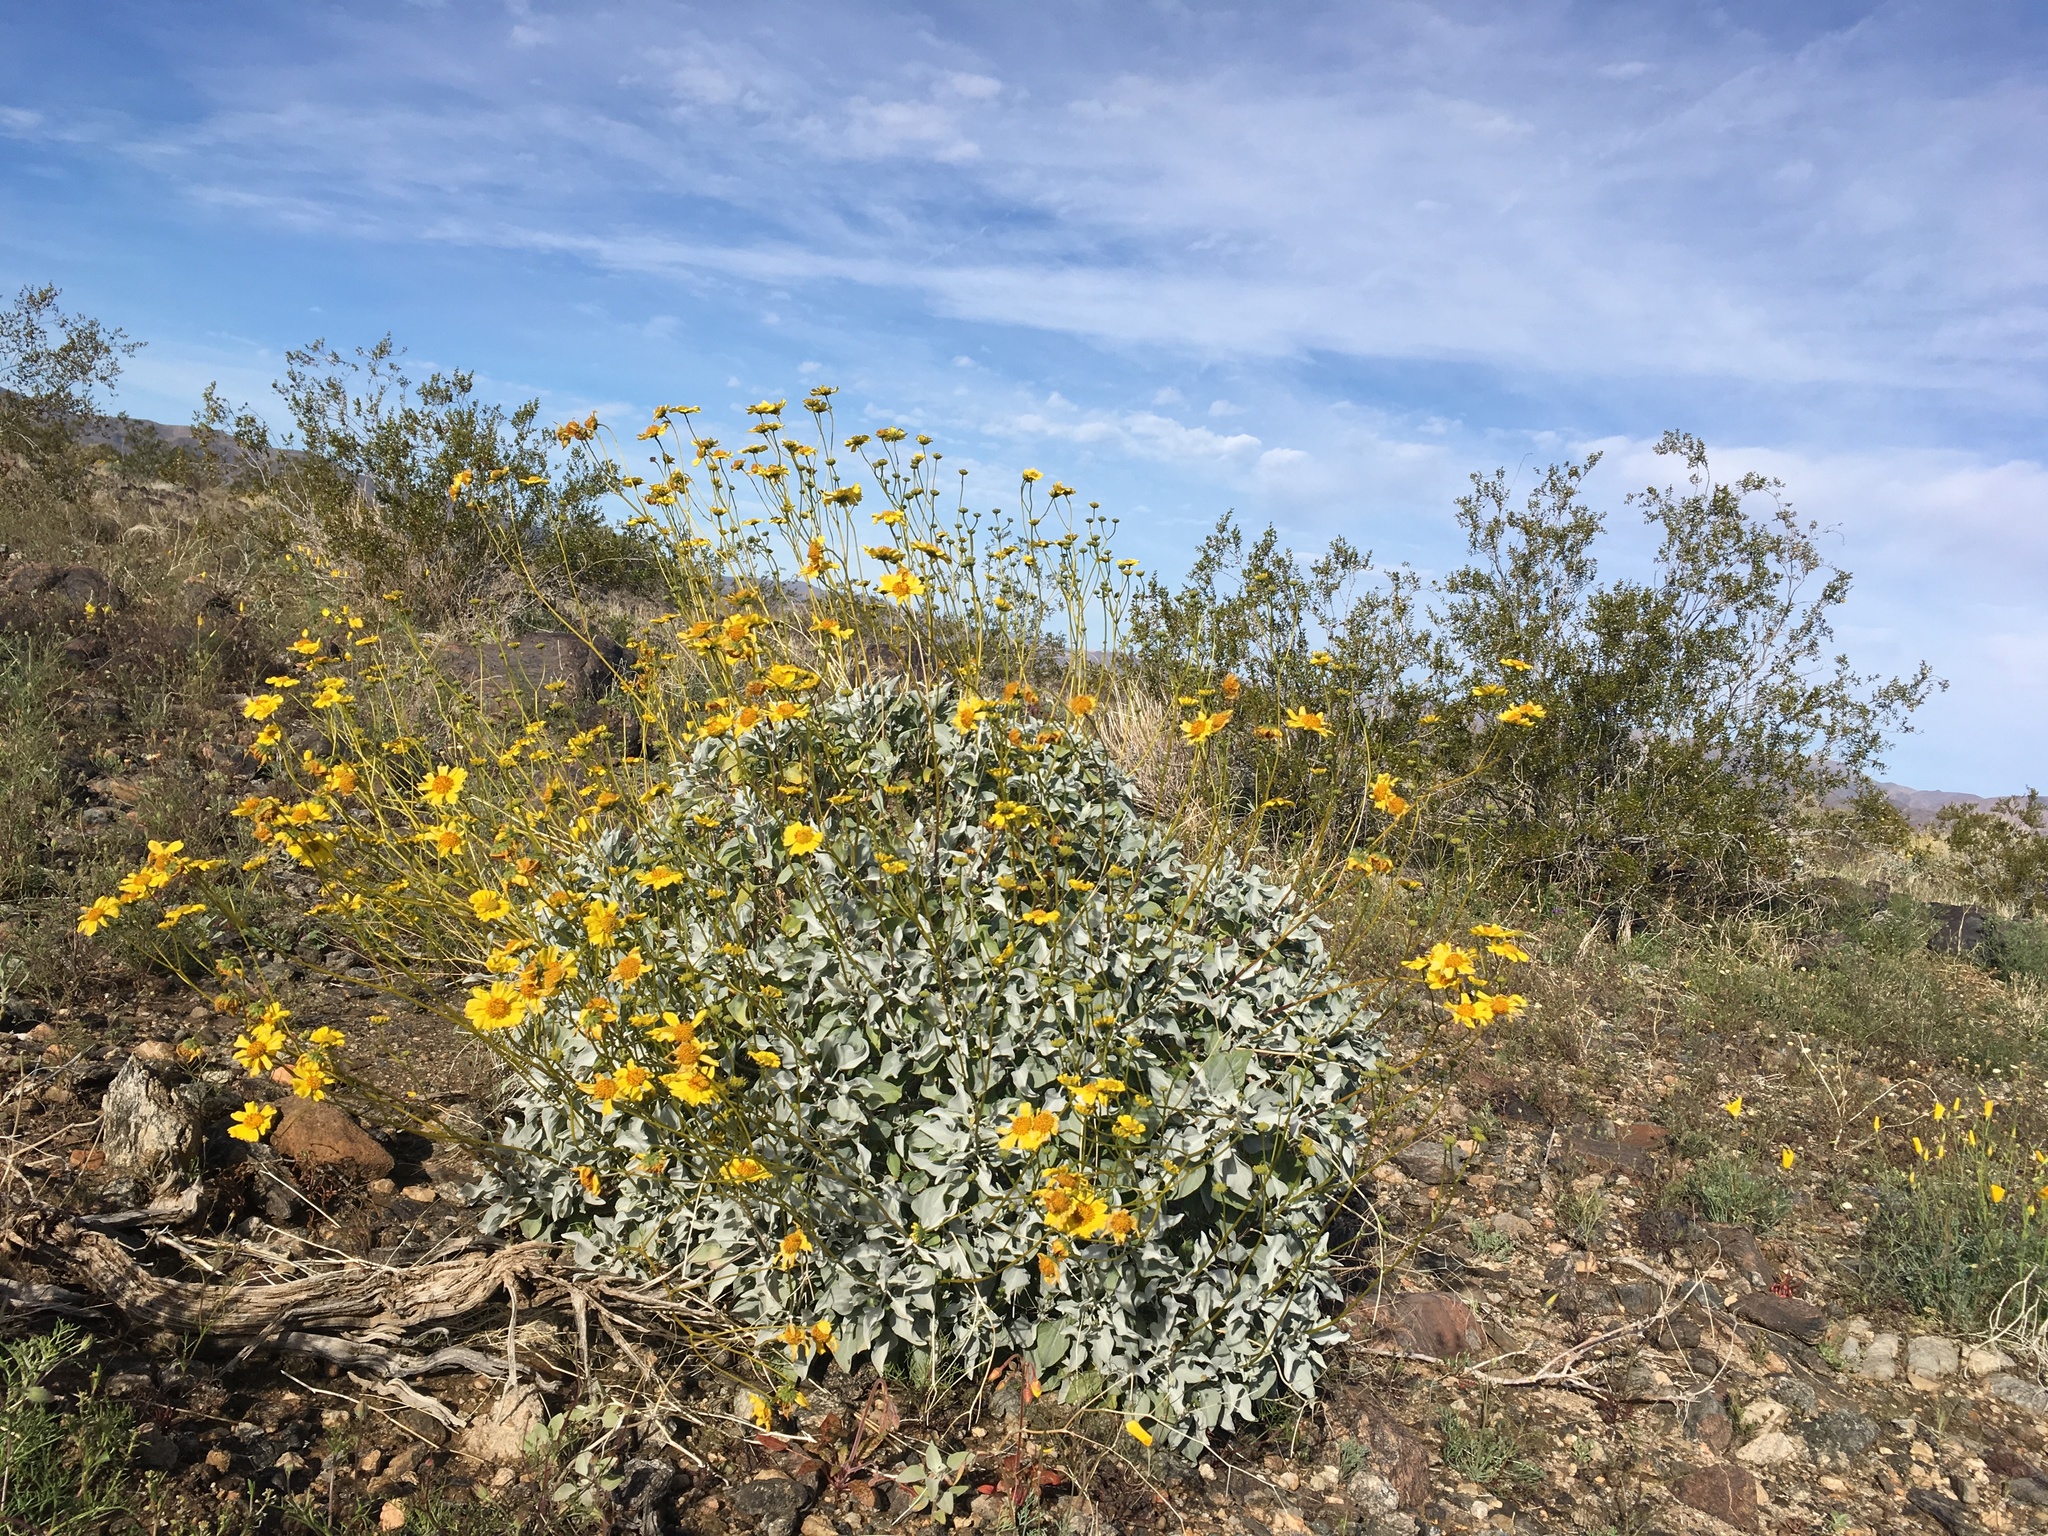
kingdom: Plantae
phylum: Tracheophyta
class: Magnoliopsida
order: Asterales
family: Asteraceae
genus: Encelia
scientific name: Encelia farinosa
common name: Brittlebush
